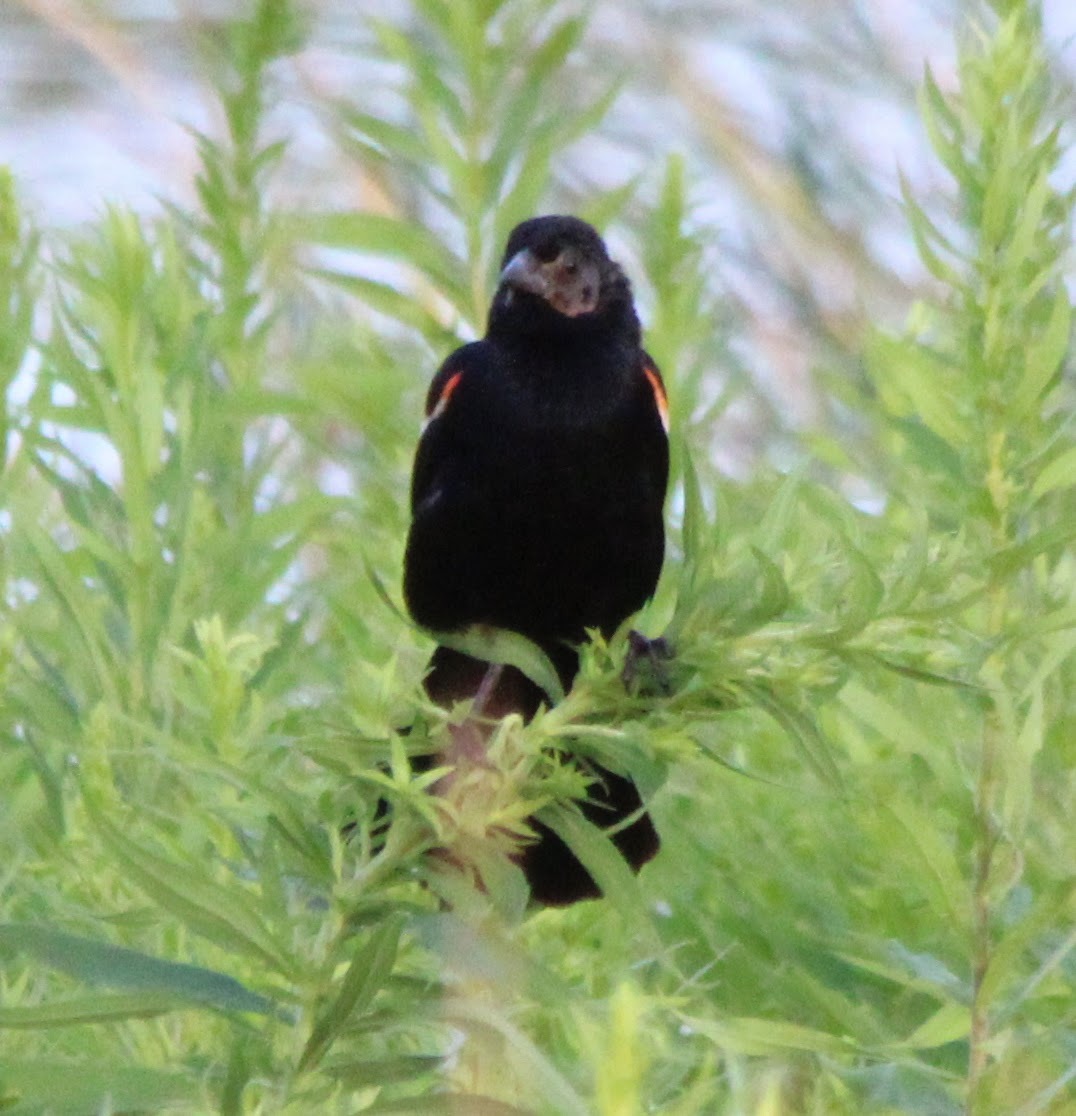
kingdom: Animalia
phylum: Chordata
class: Aves
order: Passeriformes
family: Icteridae
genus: Agelaius
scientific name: Agelaius phoeniceus
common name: Red-winged blackbird
